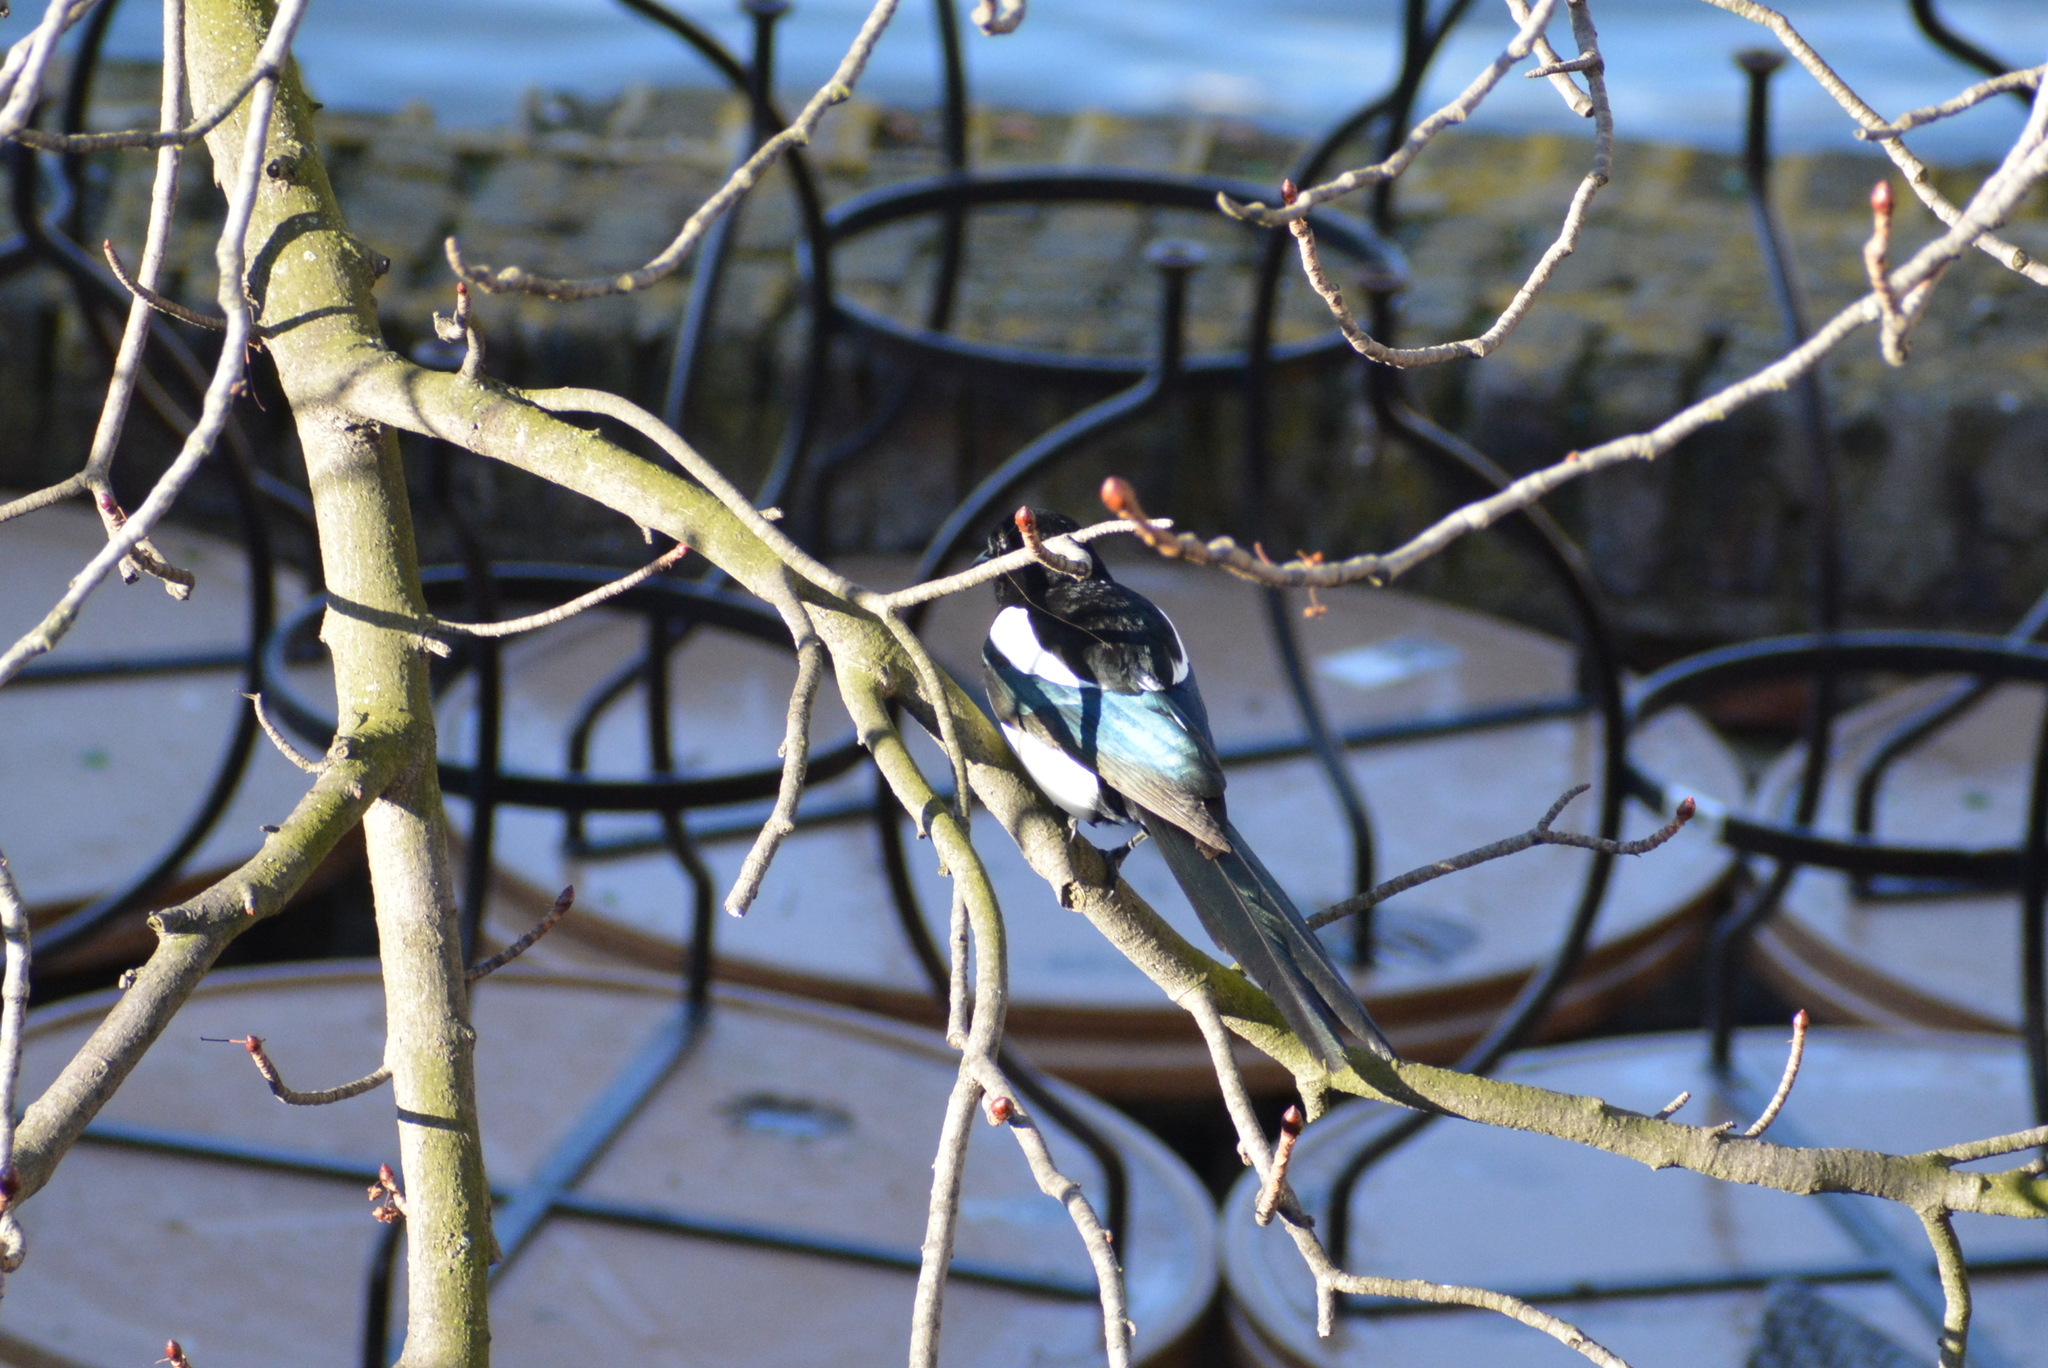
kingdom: Animalia
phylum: Chordata
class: Aves
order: Passeriformes
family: Corvidae
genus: Pica
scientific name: Pica pica
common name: Eurasian magpie
